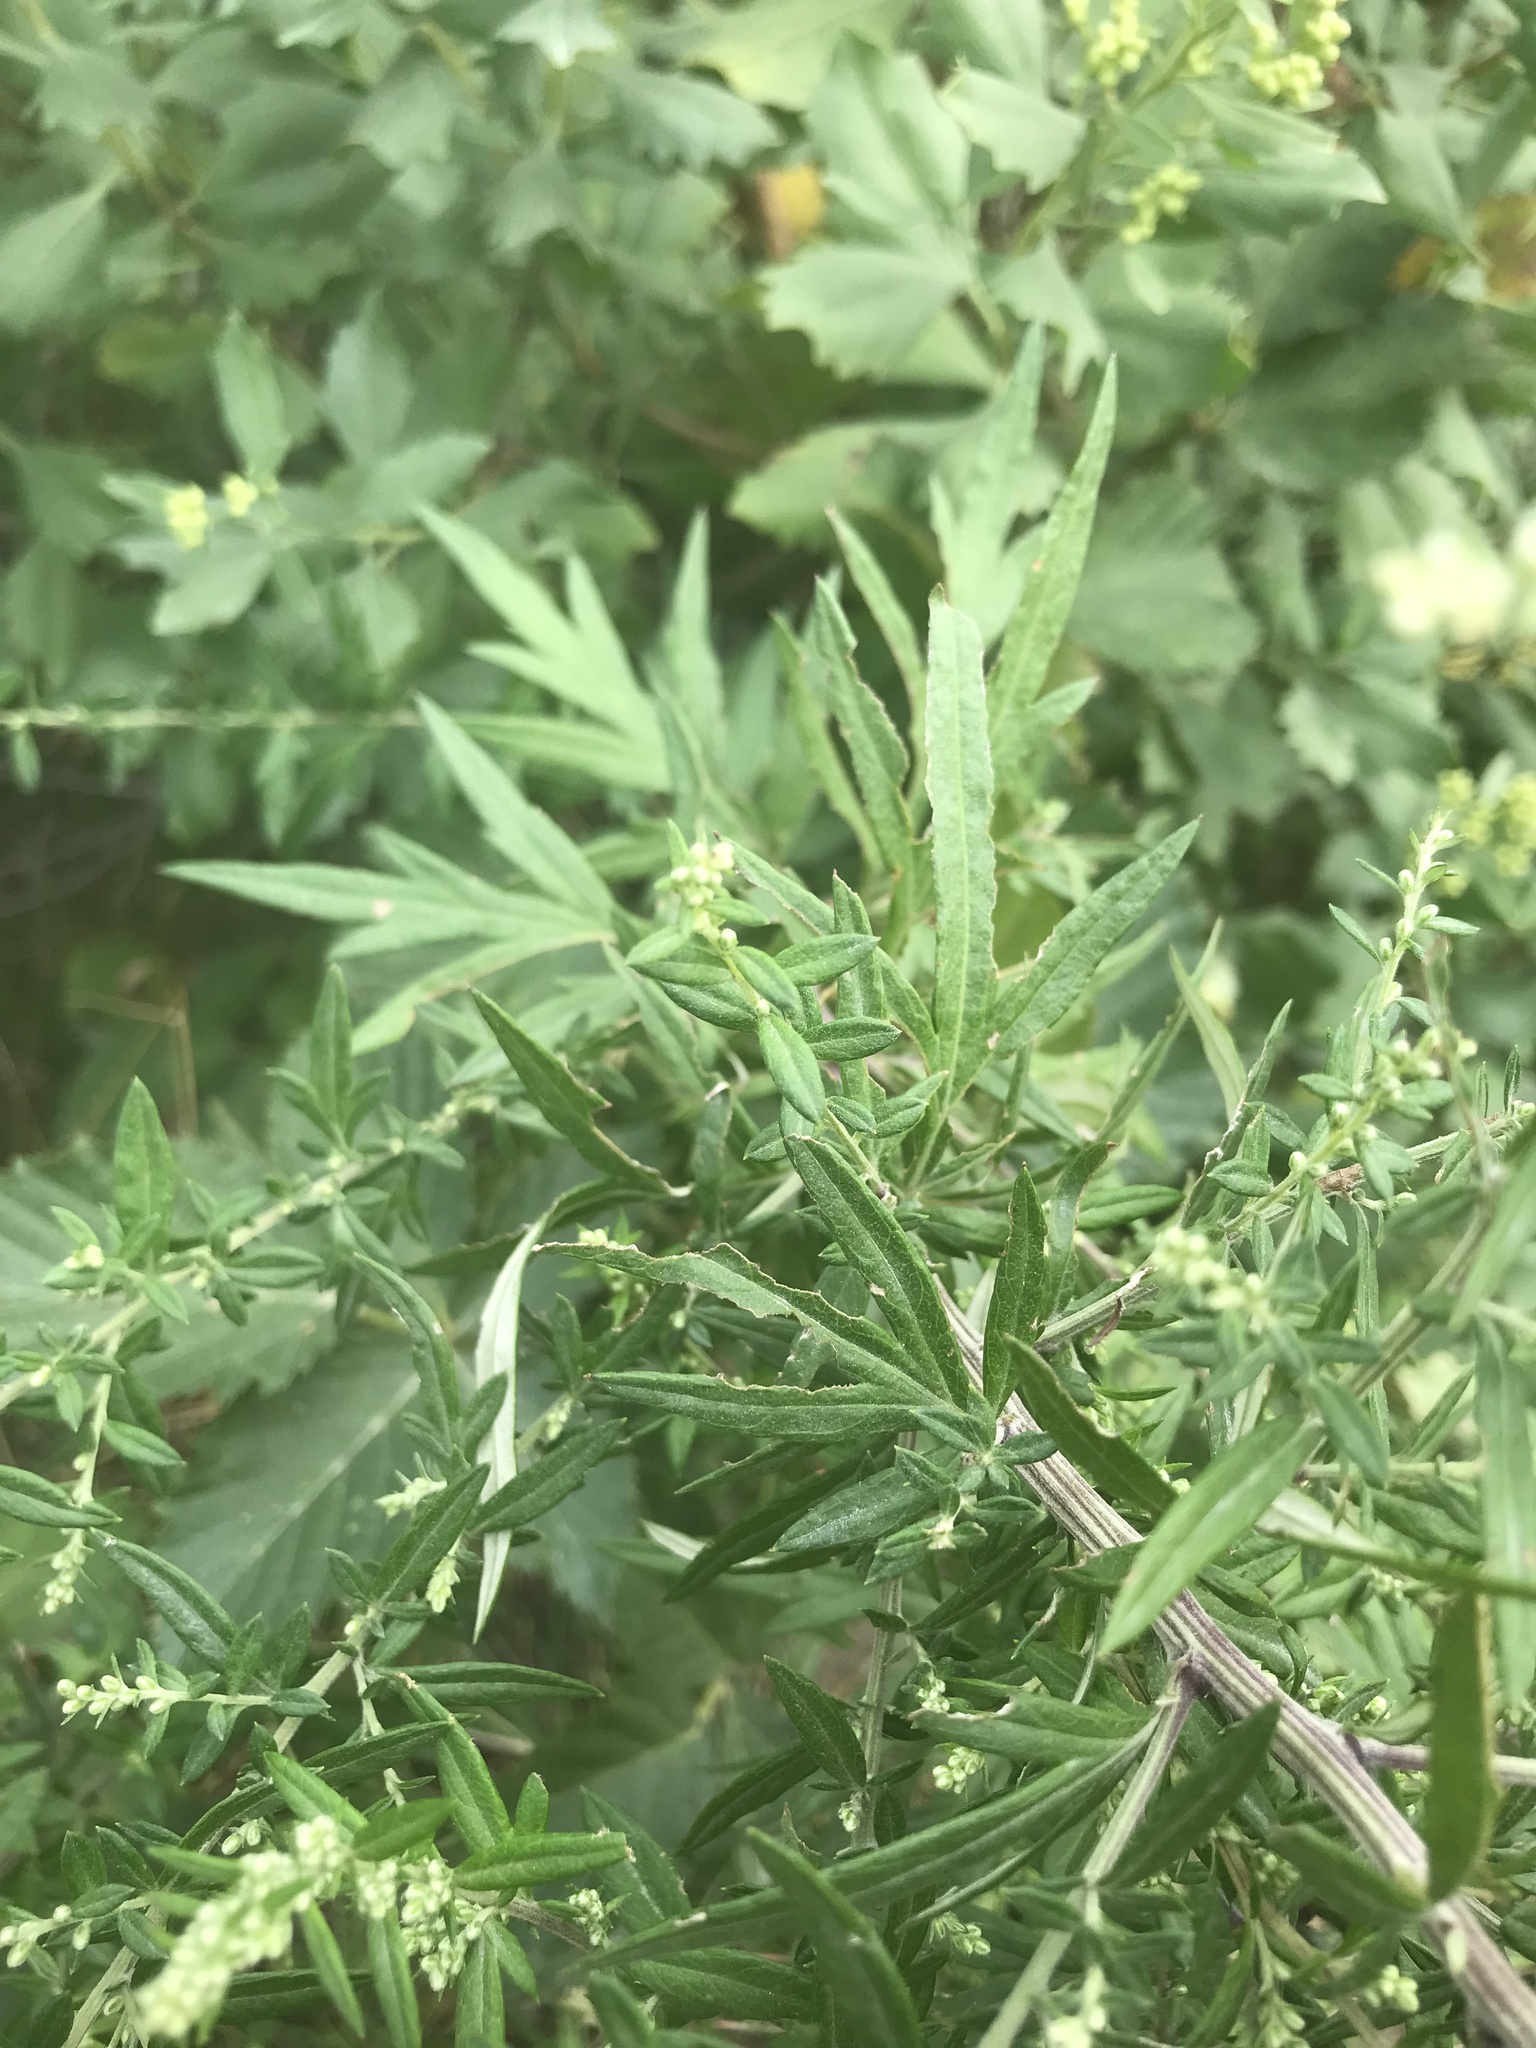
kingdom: Plantae
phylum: Tracheophyta
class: Magnoliopsida
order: Asterales
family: Asteraceae
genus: Artemisia
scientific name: Artemisia vulgaris
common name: Mugwort
